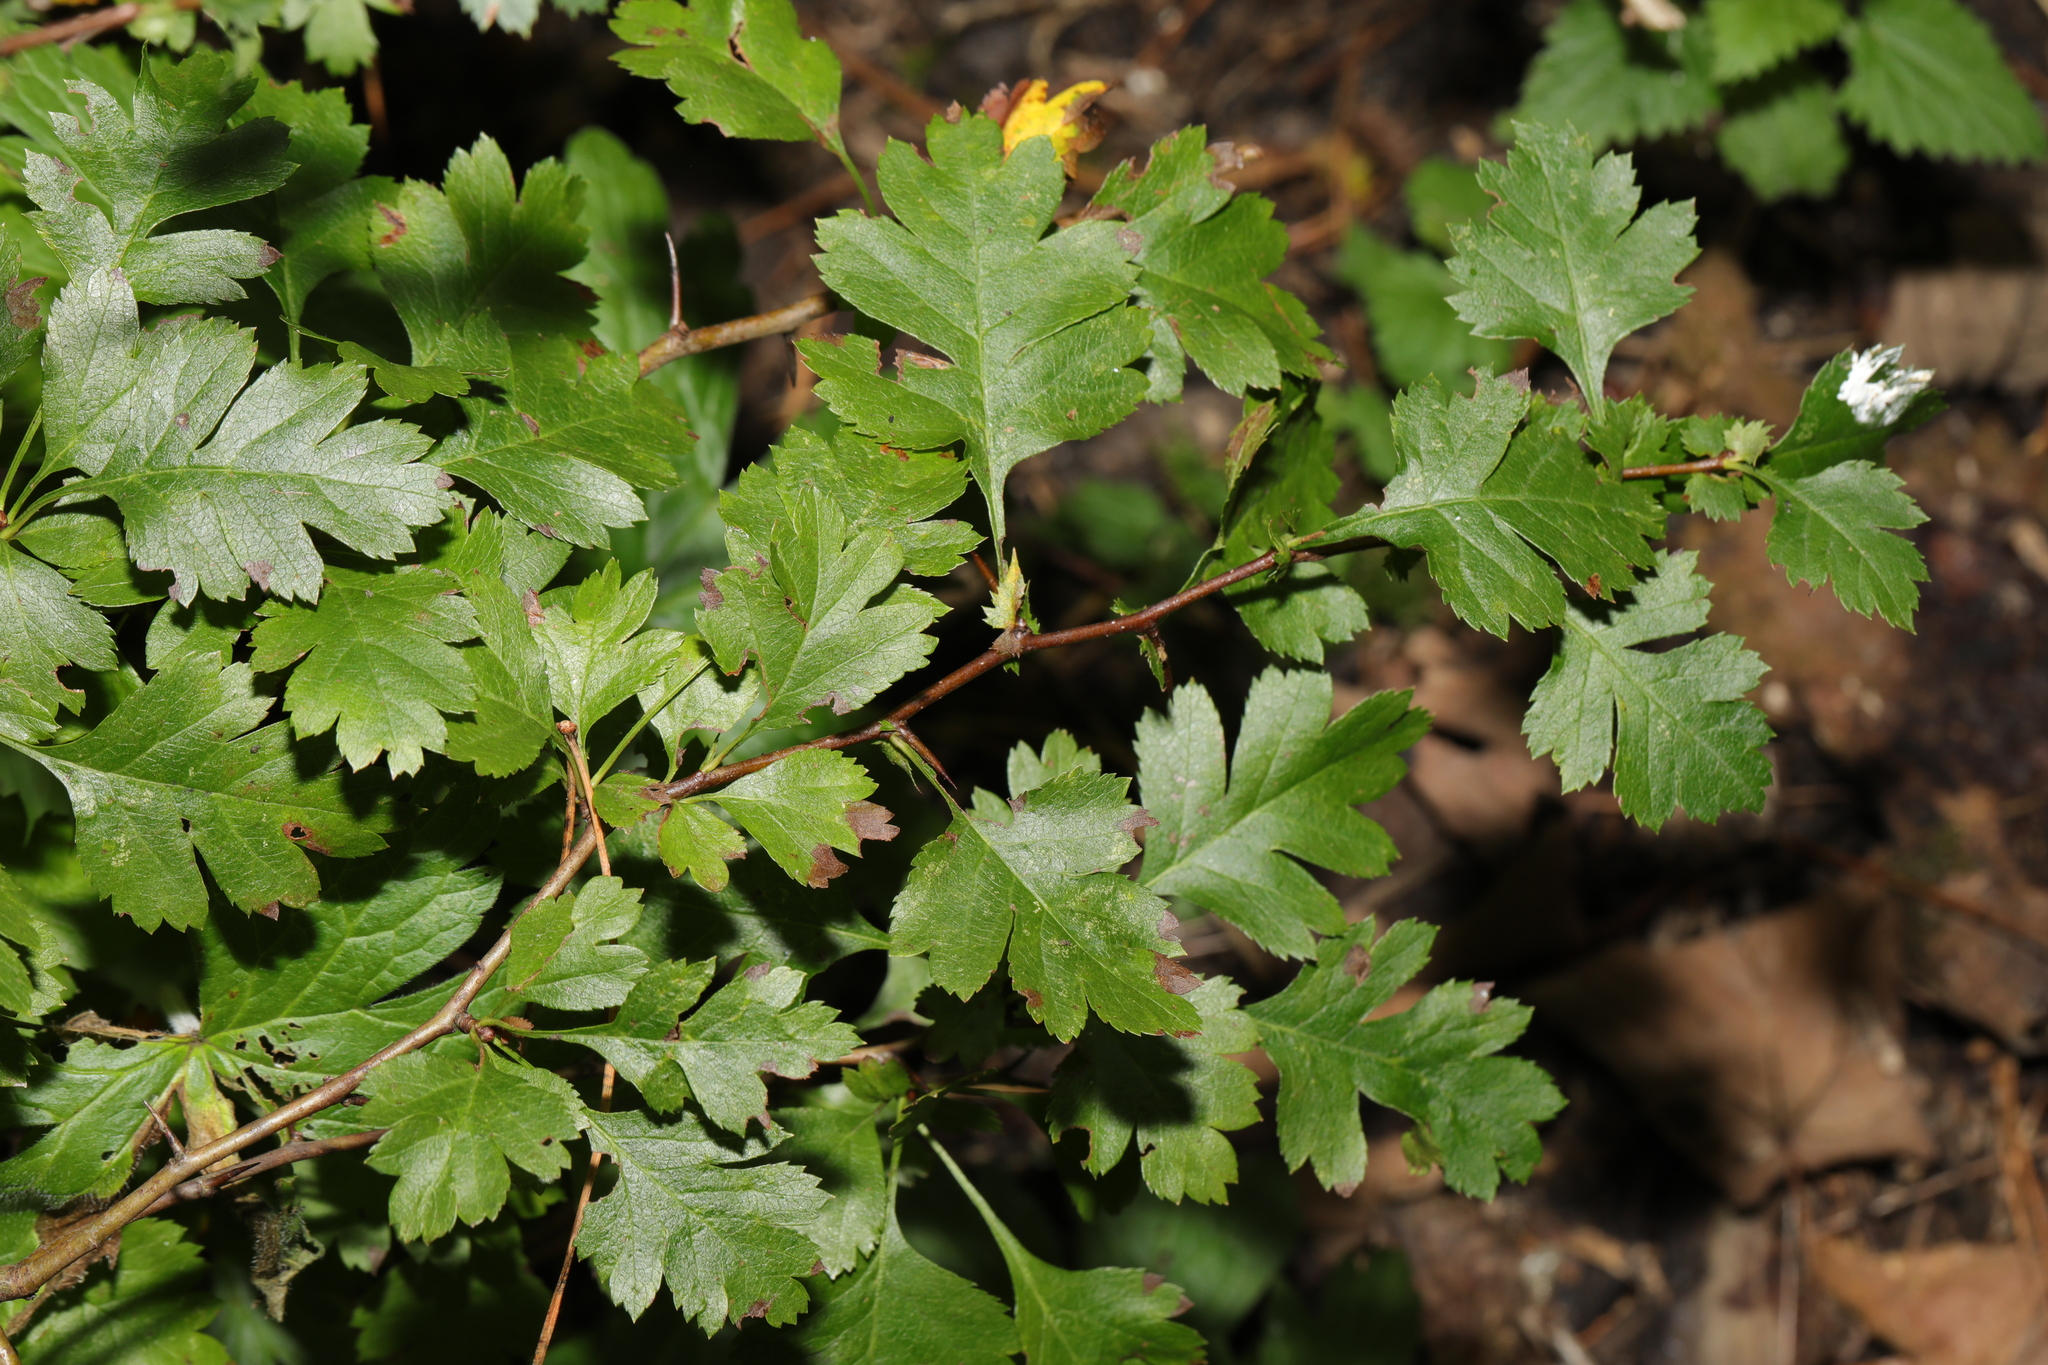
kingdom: Plantae
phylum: Tracheophyta
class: Magnoliopsida
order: Rosales
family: Rosaceae
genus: Crataegus
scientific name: Crataegus monogyna
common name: Hawthorn
